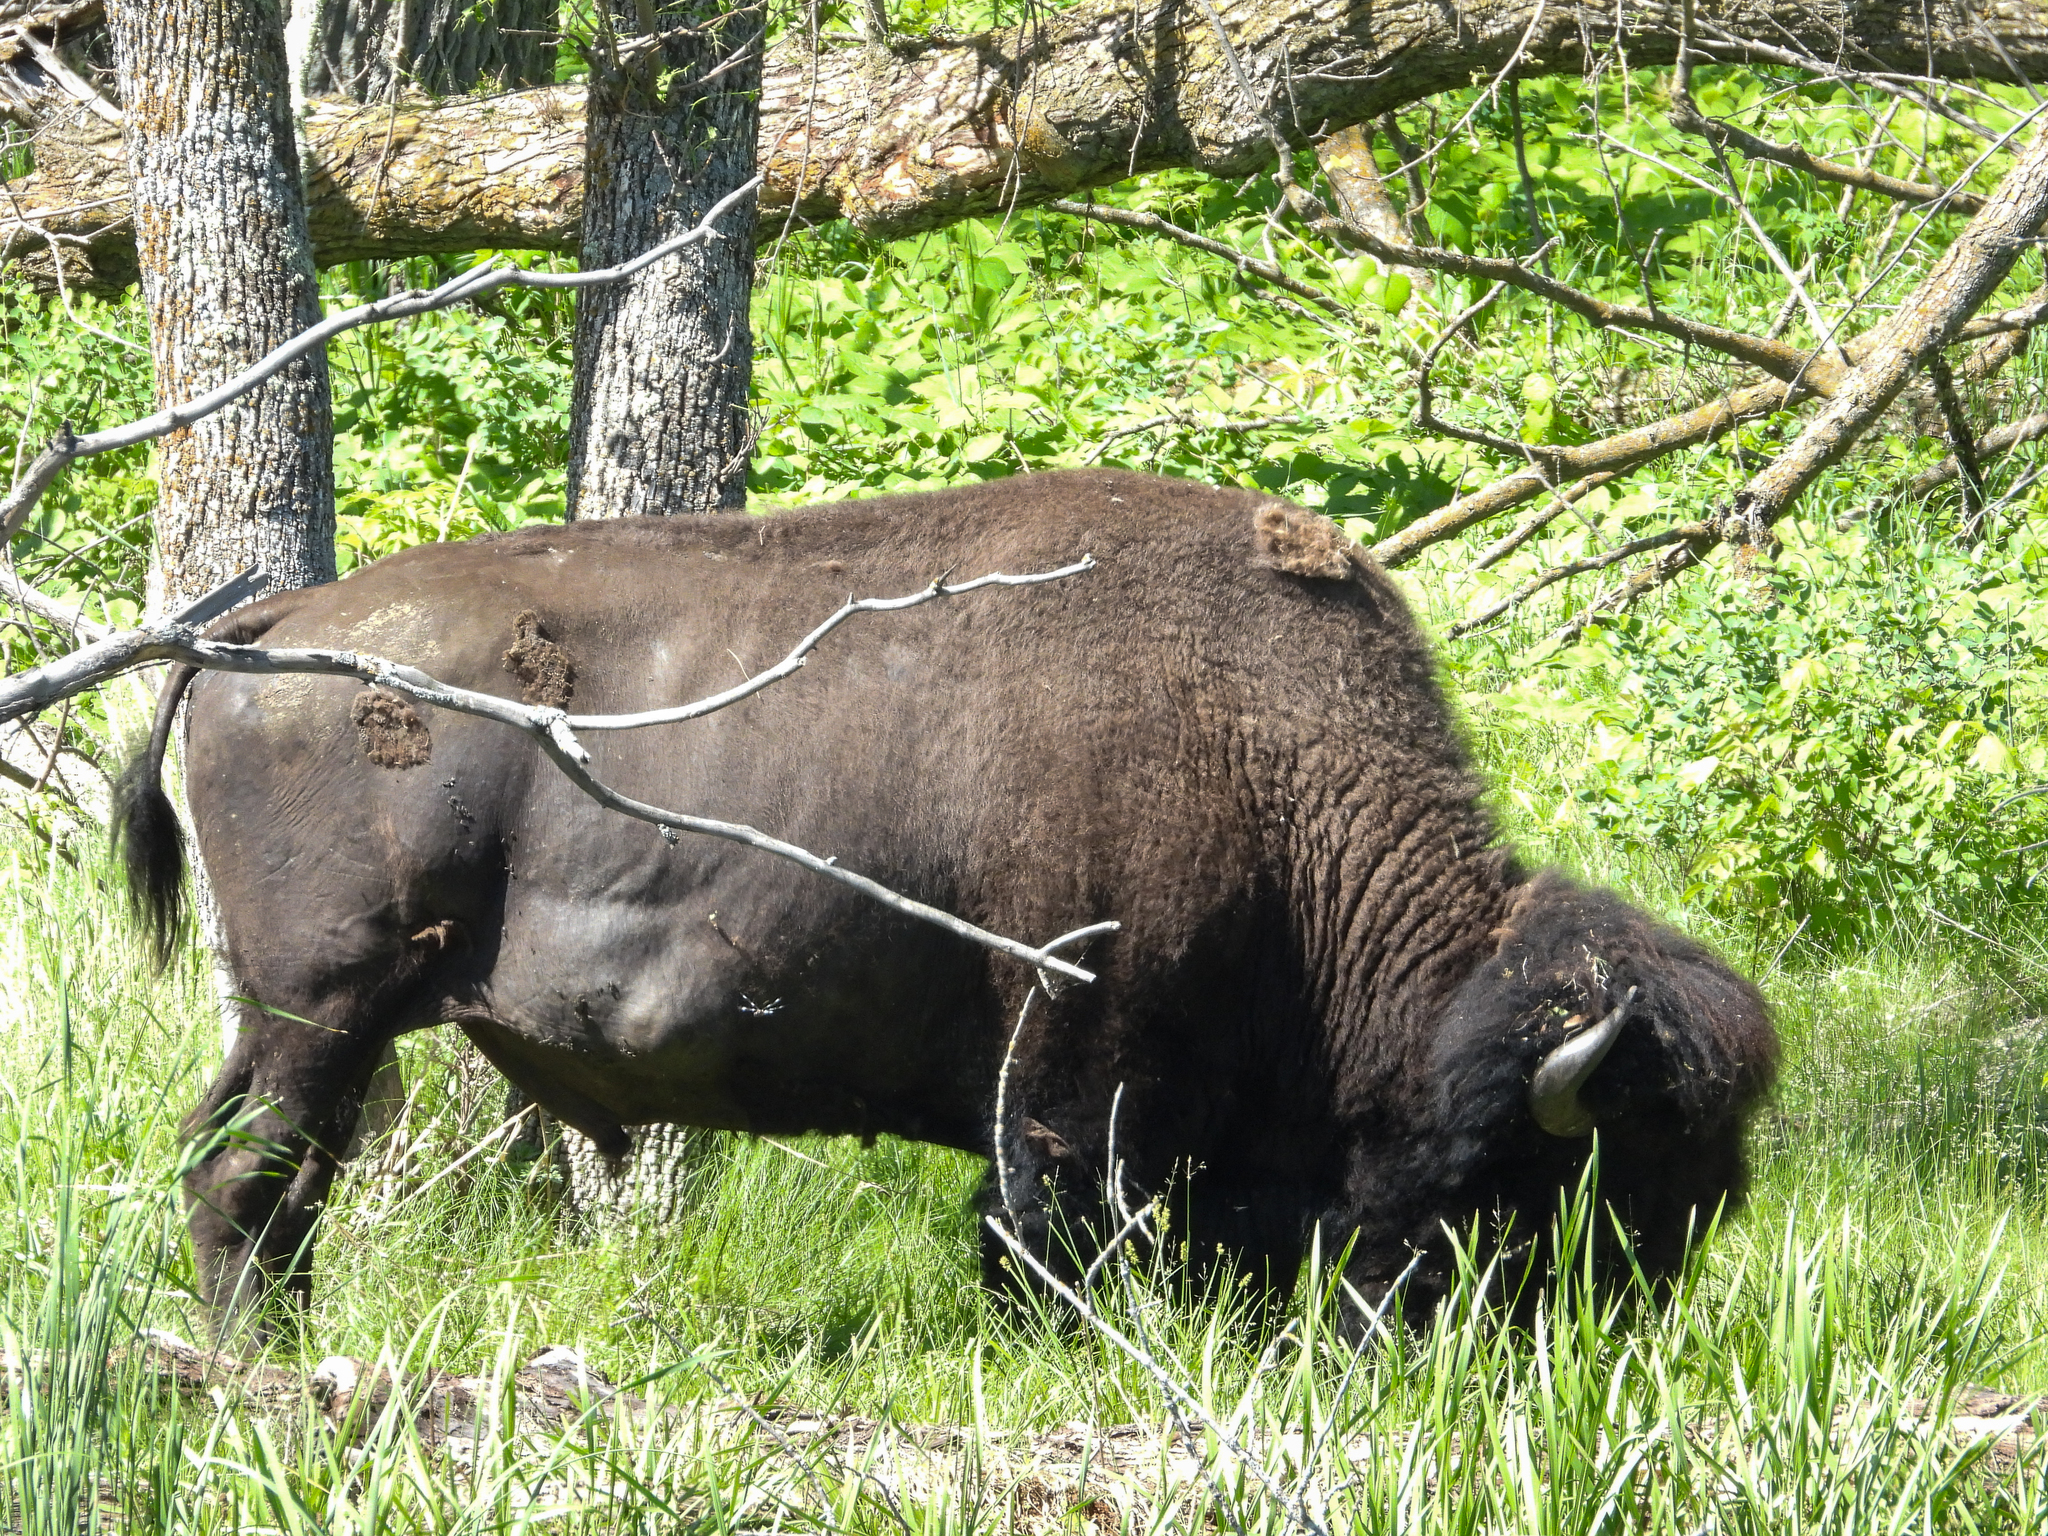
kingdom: Animalia
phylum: Chordata
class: Mammalia
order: Artiodactyla
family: Bovidae
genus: Bison
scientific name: Bison bison
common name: American bison
